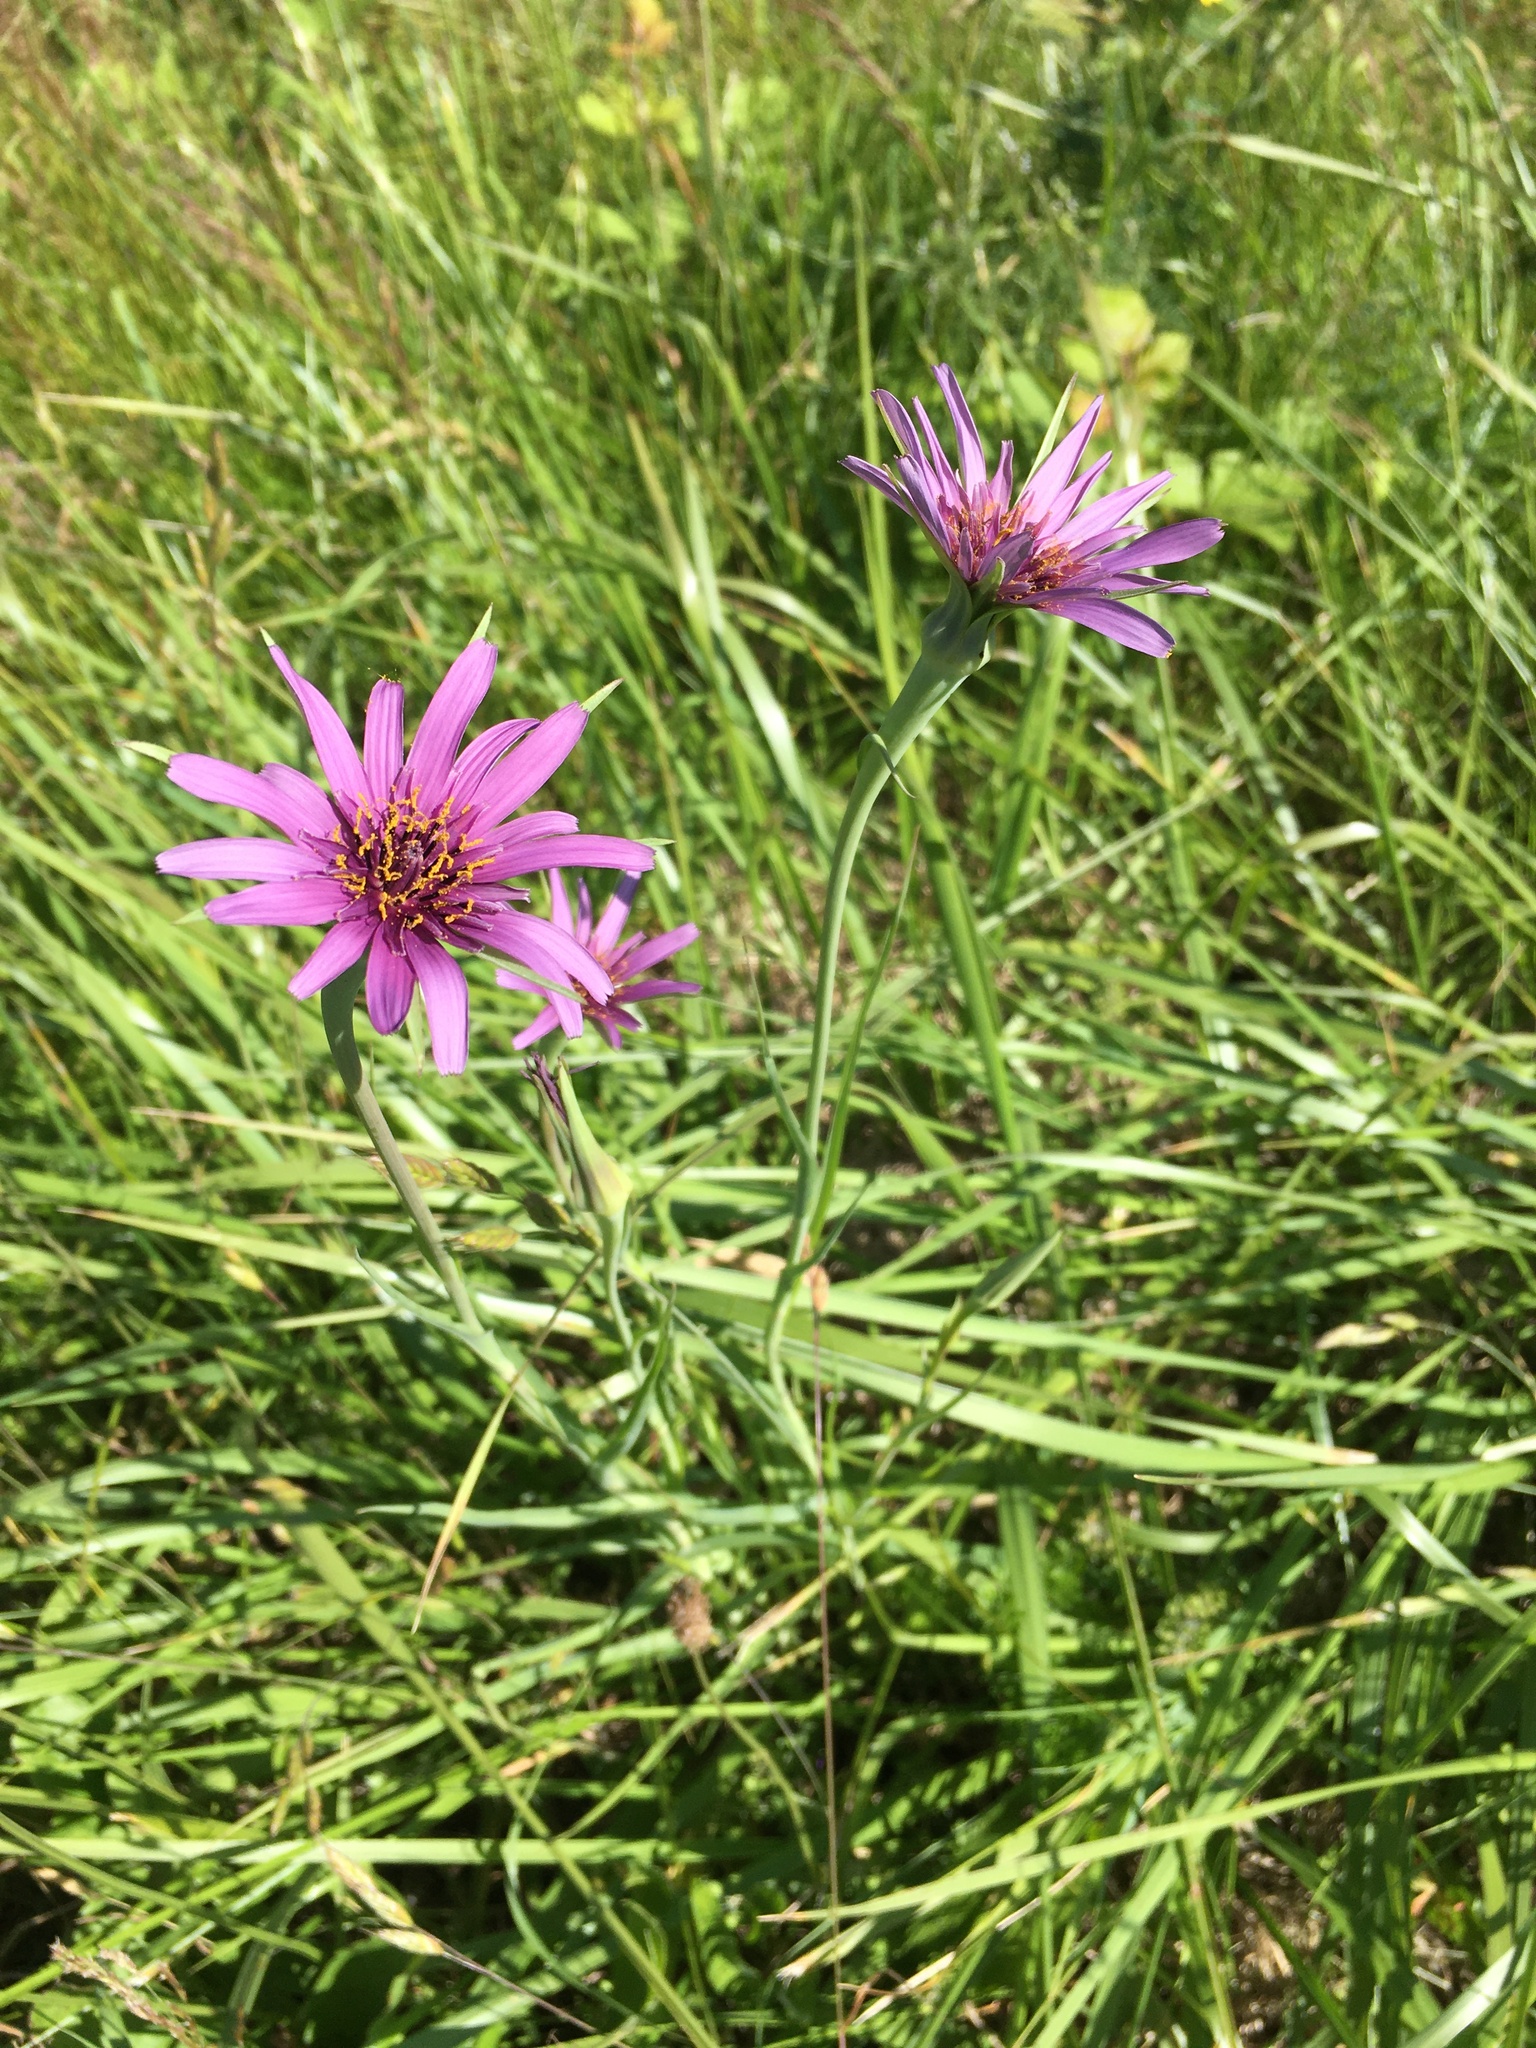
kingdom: Plantae
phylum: Tracheophyta
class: Magnoliopsida
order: Asterales
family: Asteraceae
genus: Tragopogon
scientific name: Tragopogon porrifolius
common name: Salsify
